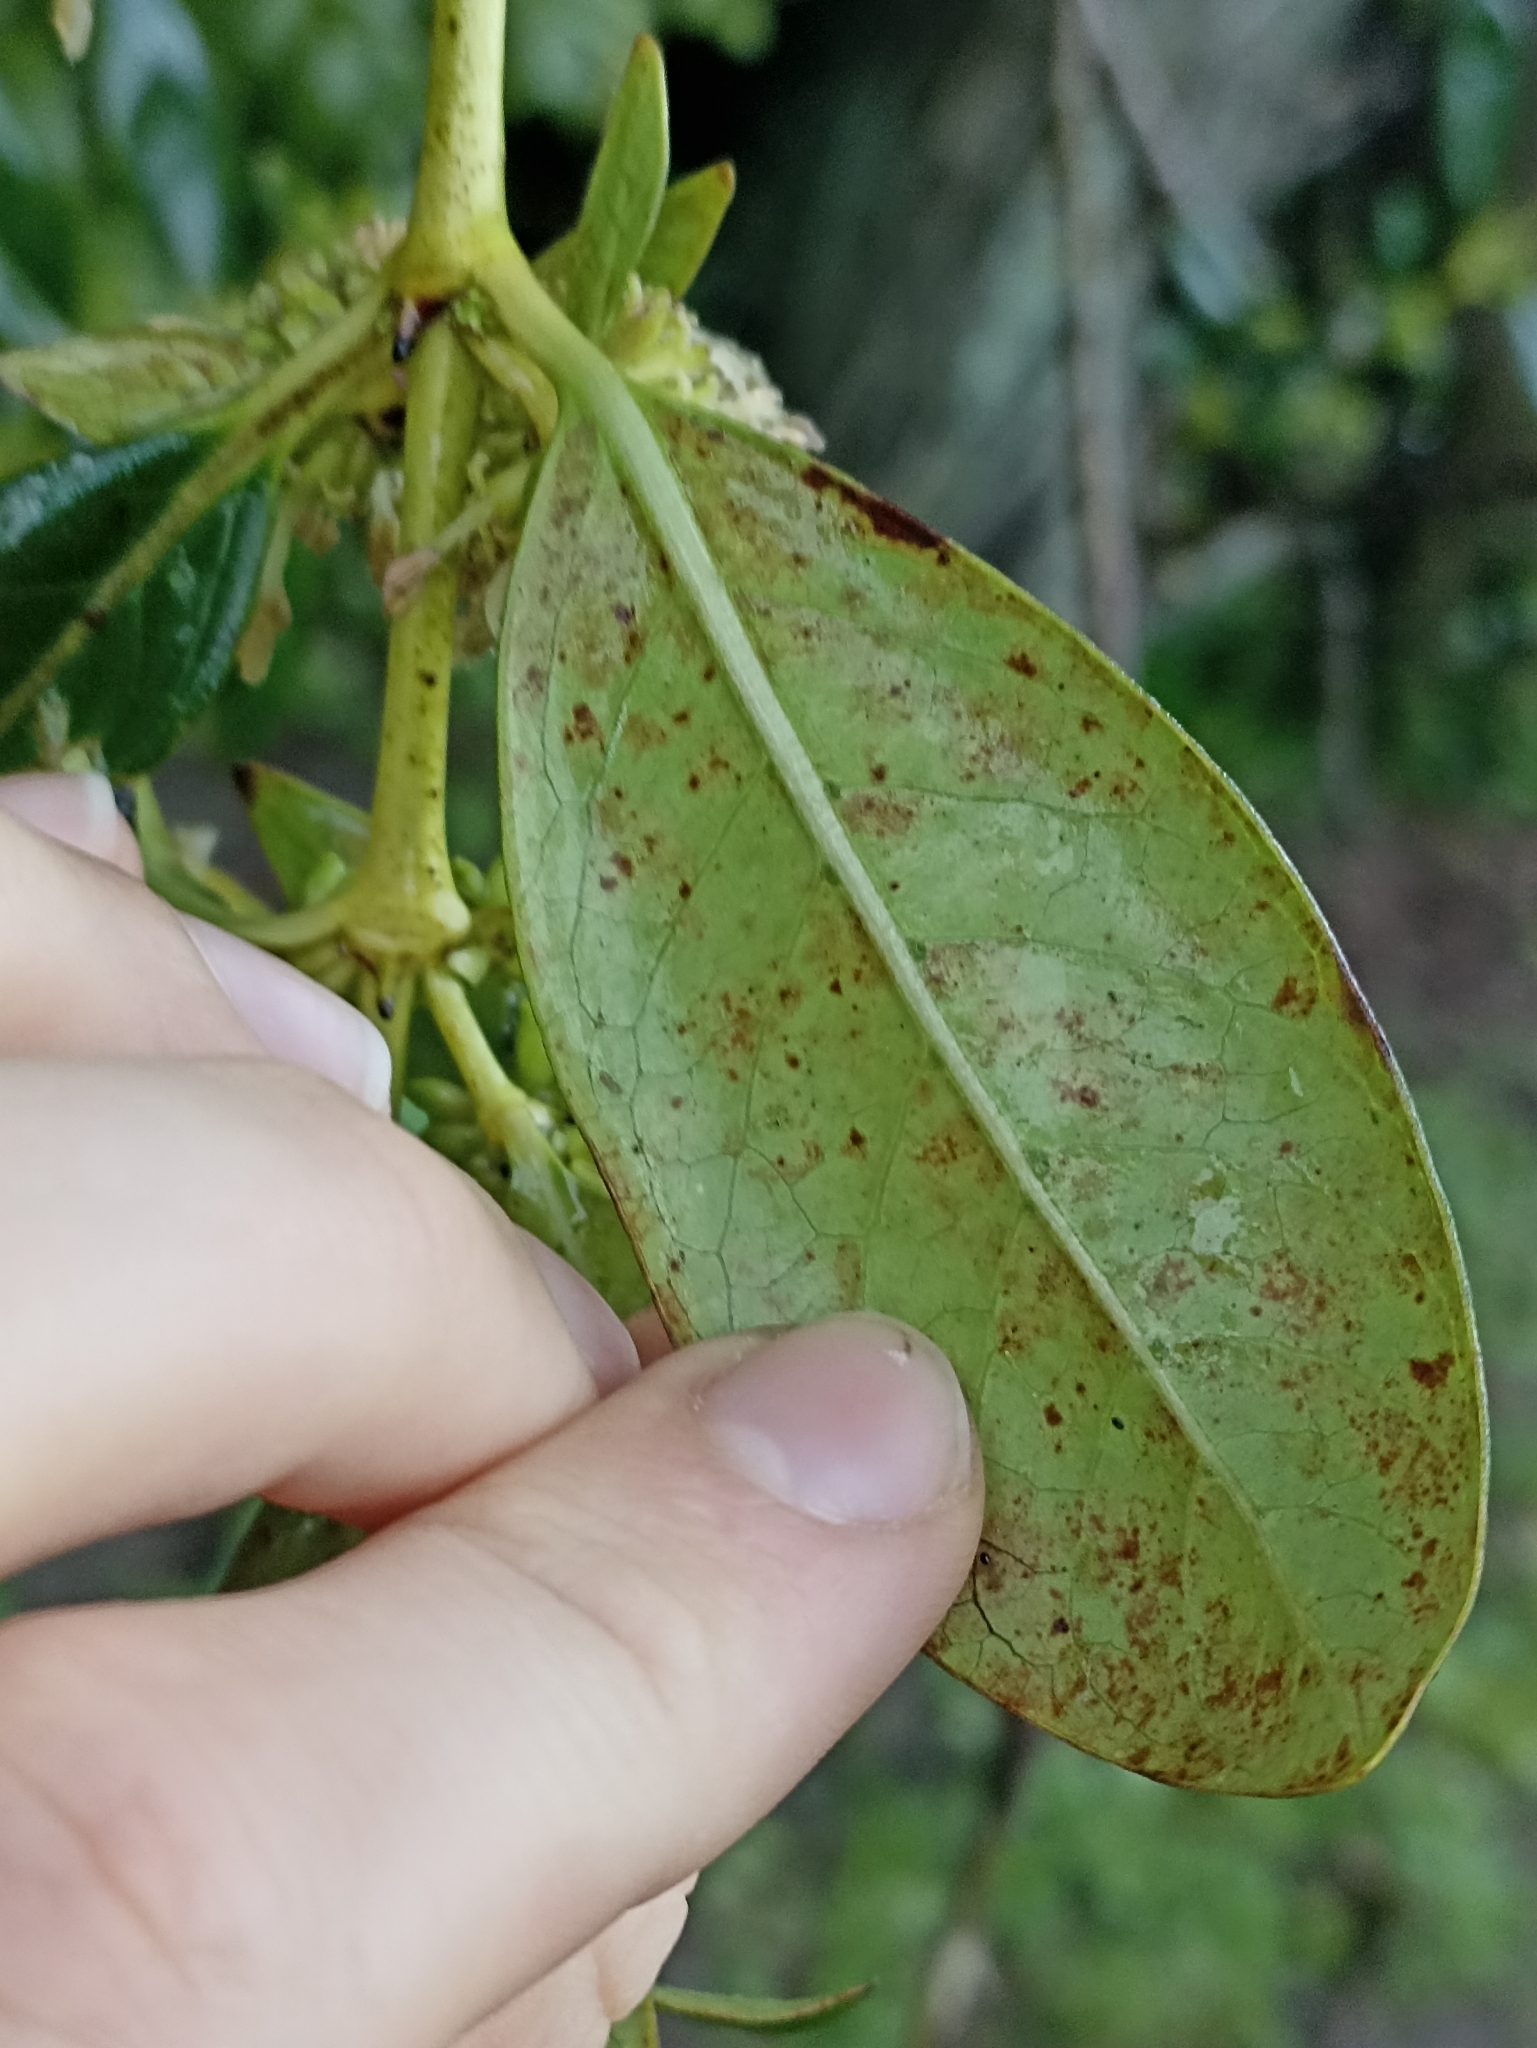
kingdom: Plantae
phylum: Tracheophyta
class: Magnoliopsida
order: Gentianales
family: Rubiaceae
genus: Coprosma
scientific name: Coprosma robusta
